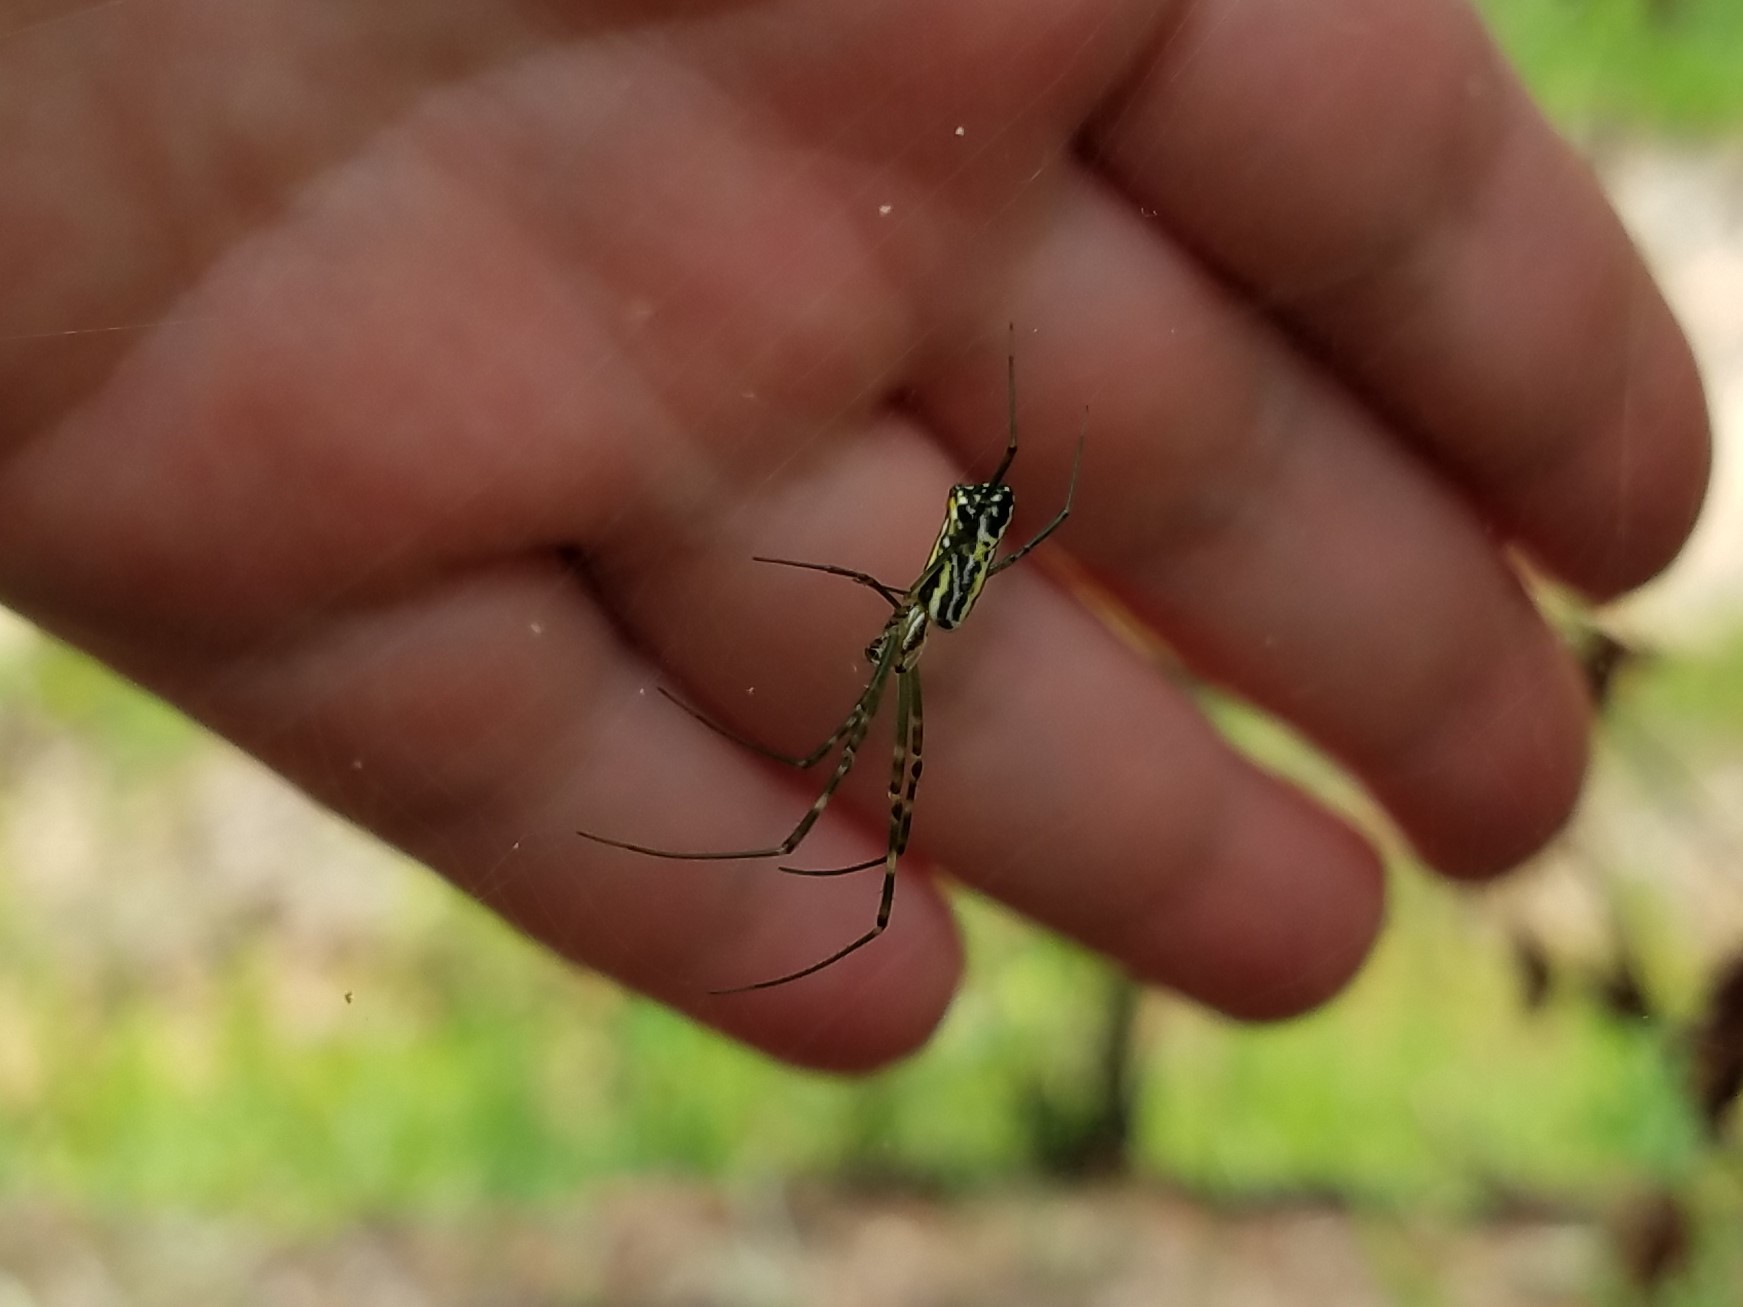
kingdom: Animalia
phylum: Arthropoda
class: Arachnida
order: Araneae
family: Araneidae
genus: Trichonephila
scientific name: Trichonephila clavata
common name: Jorō spider
